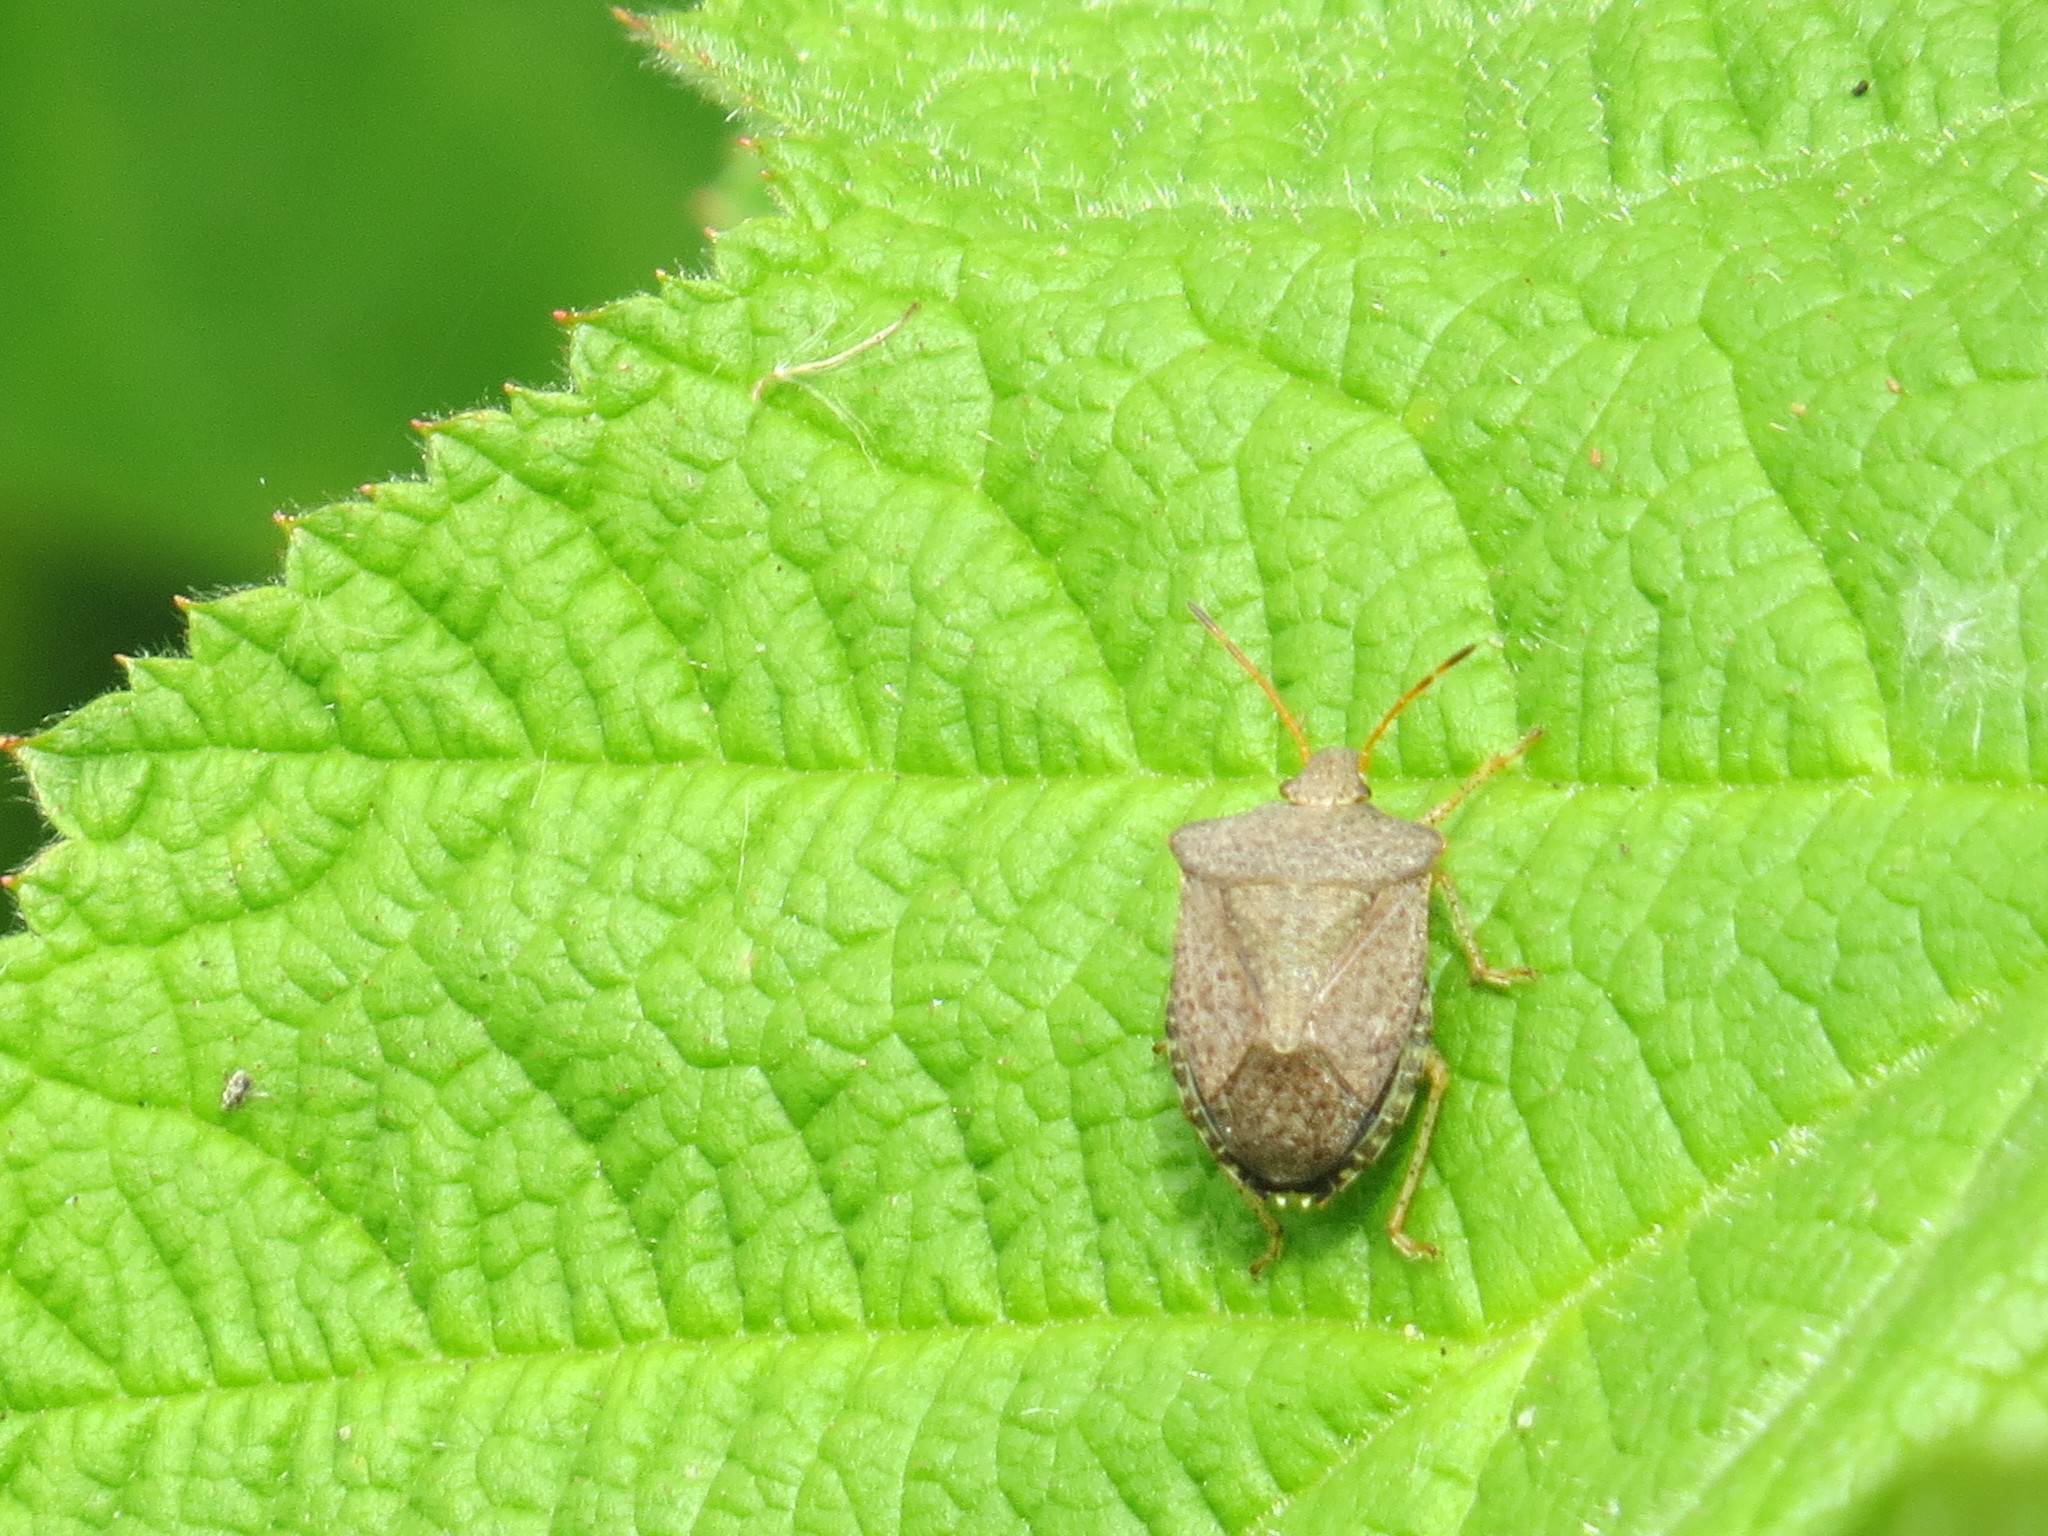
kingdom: Animalia
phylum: Arthropoda
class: Insecta
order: Hemiptera
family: Pentatomidae
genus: Euschistus
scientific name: Euschistus conspersus
